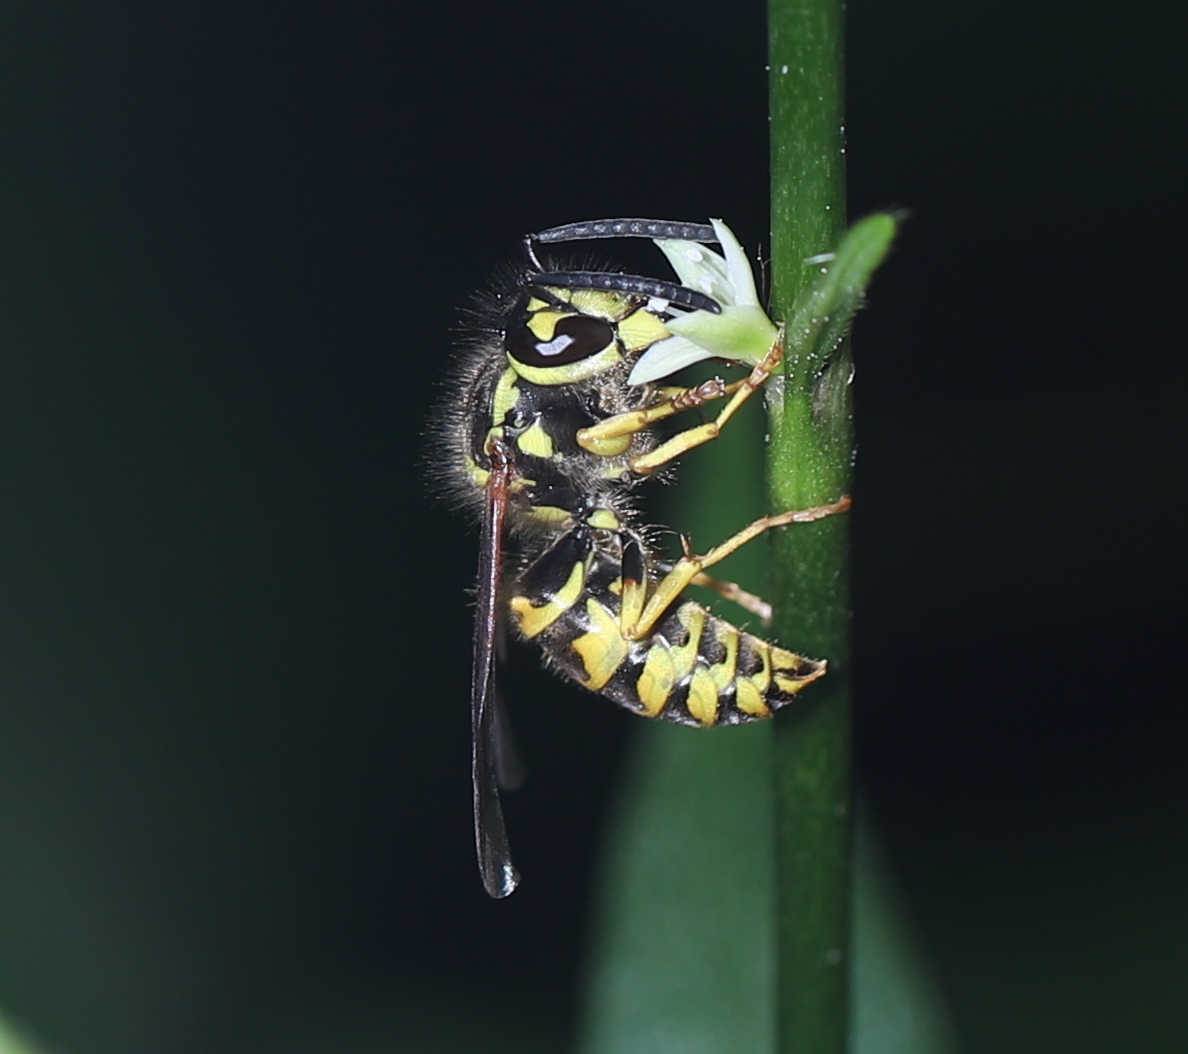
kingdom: Animalia
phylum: Arthropoda
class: Insecta
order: Hymenoptera
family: Vespidae
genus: Vespula
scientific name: Vespula maculifrons
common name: Eastern yellowjacket
